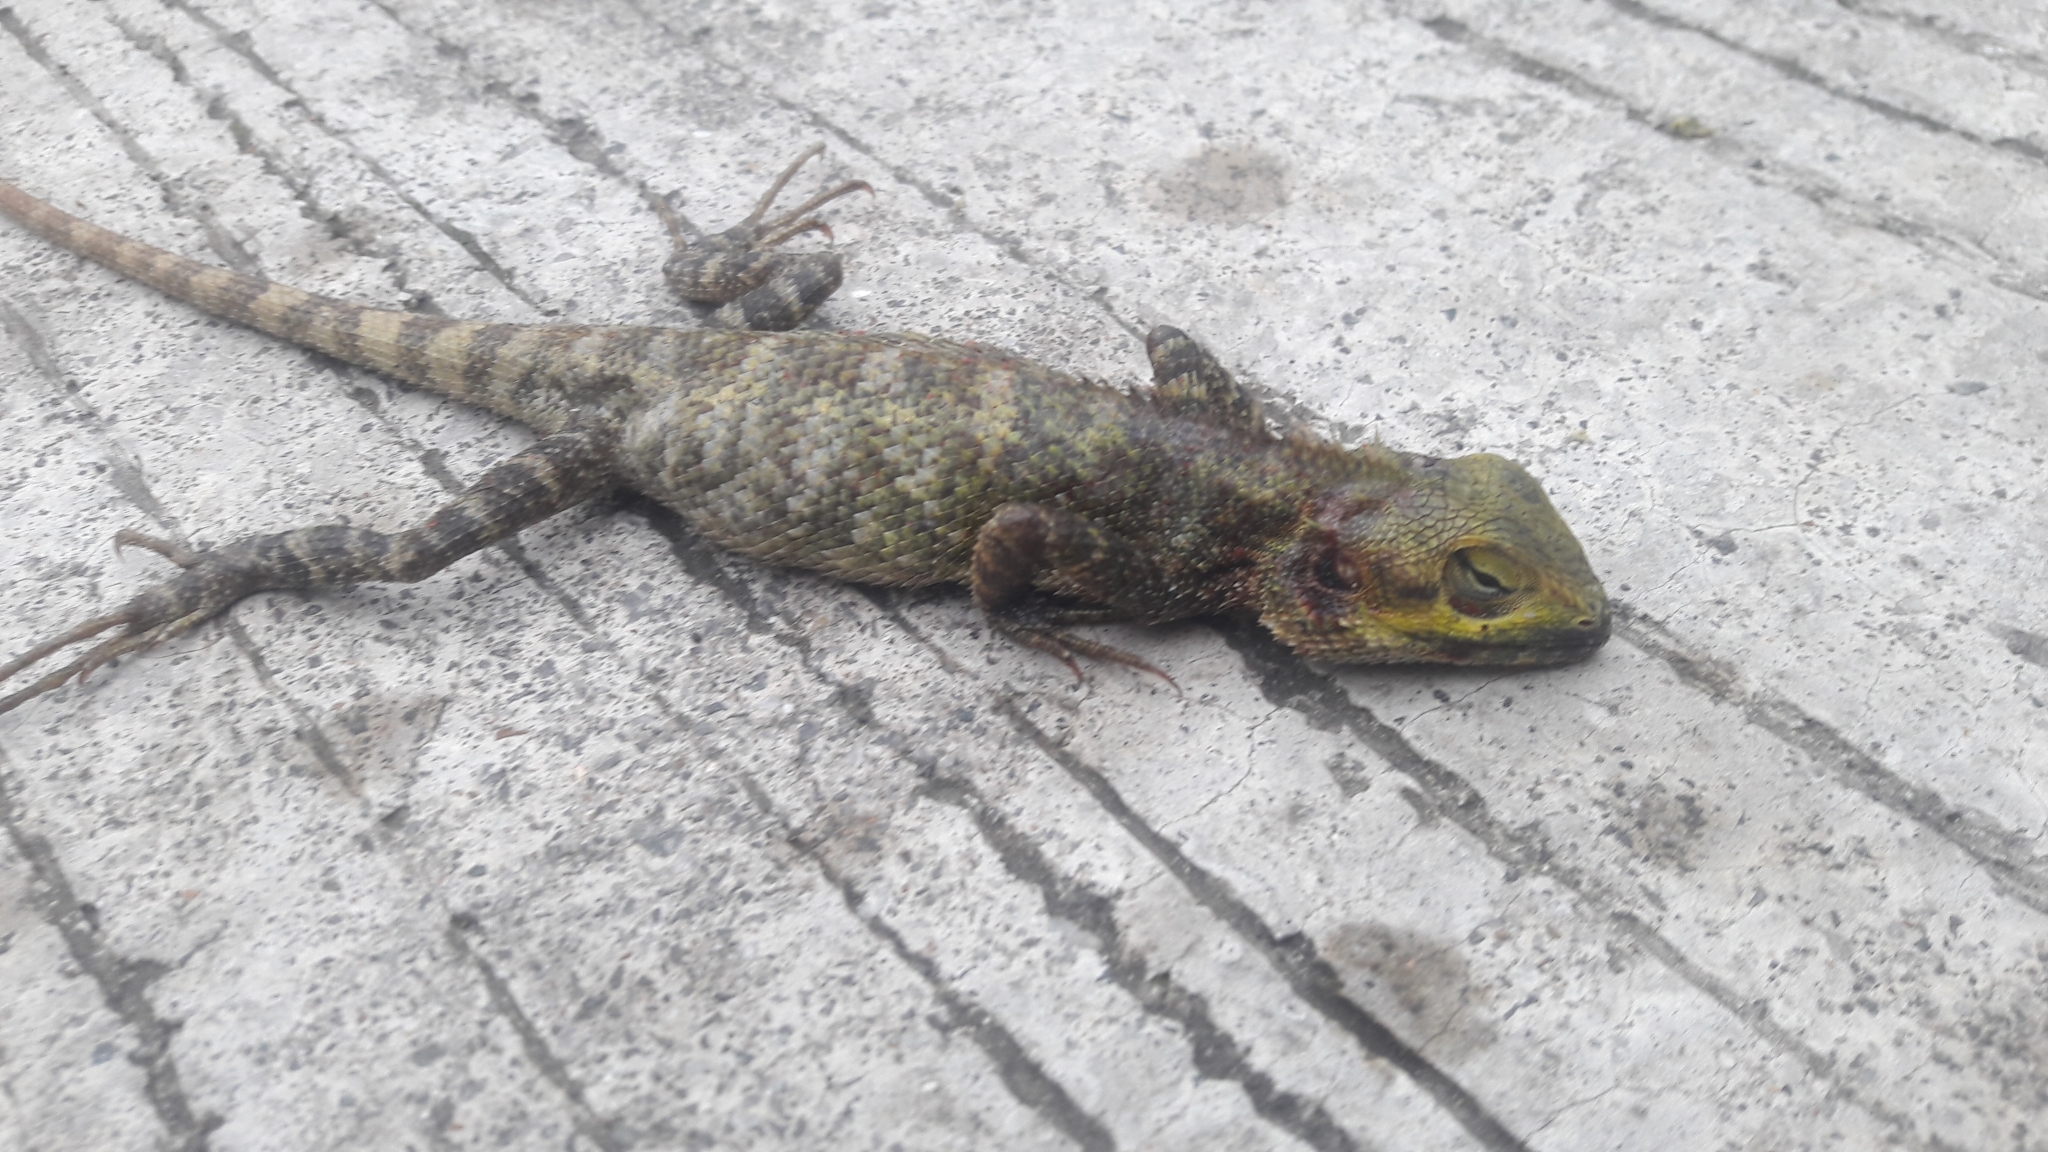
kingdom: Animalia
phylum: Chordata
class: Squamata
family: Agamidae
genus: Calotes
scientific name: Calotes versicolor
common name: Oriental garden lizard
